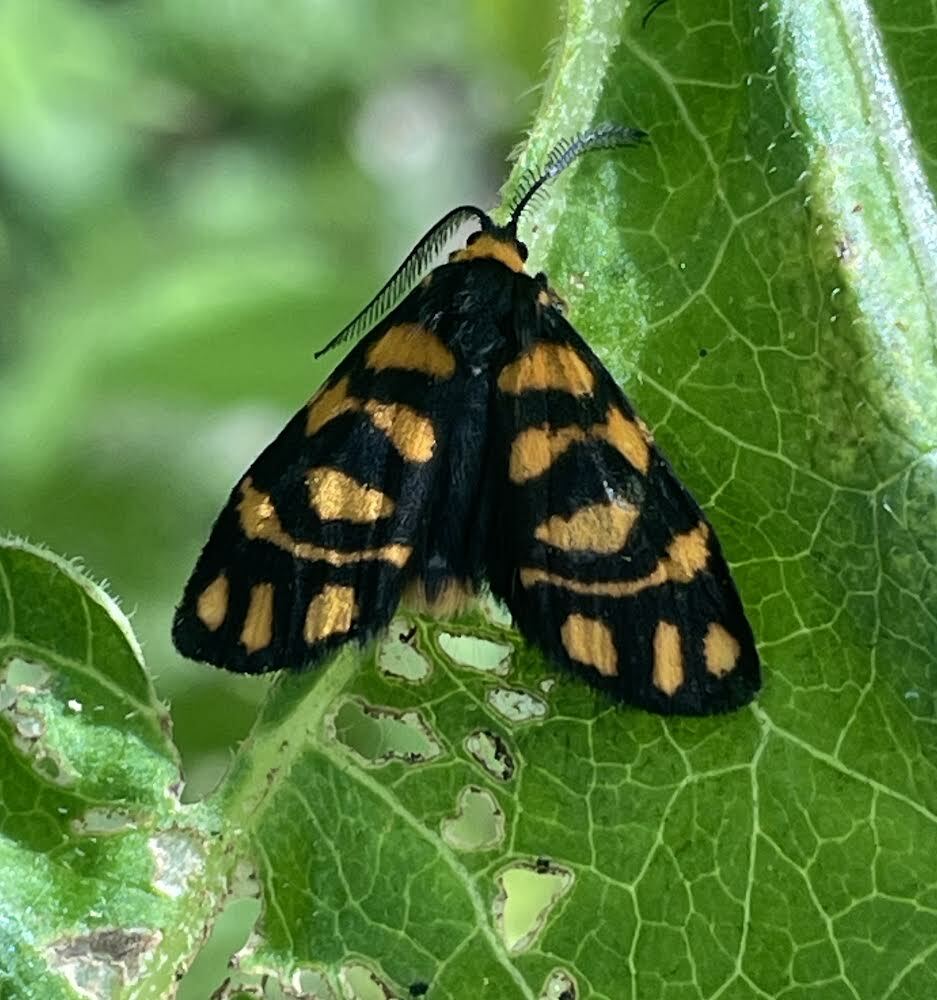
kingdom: Animalia
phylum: Arthropoda
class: Insecta
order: Lepidoptera
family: Erebidae
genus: Asura
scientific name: Asura lydia
